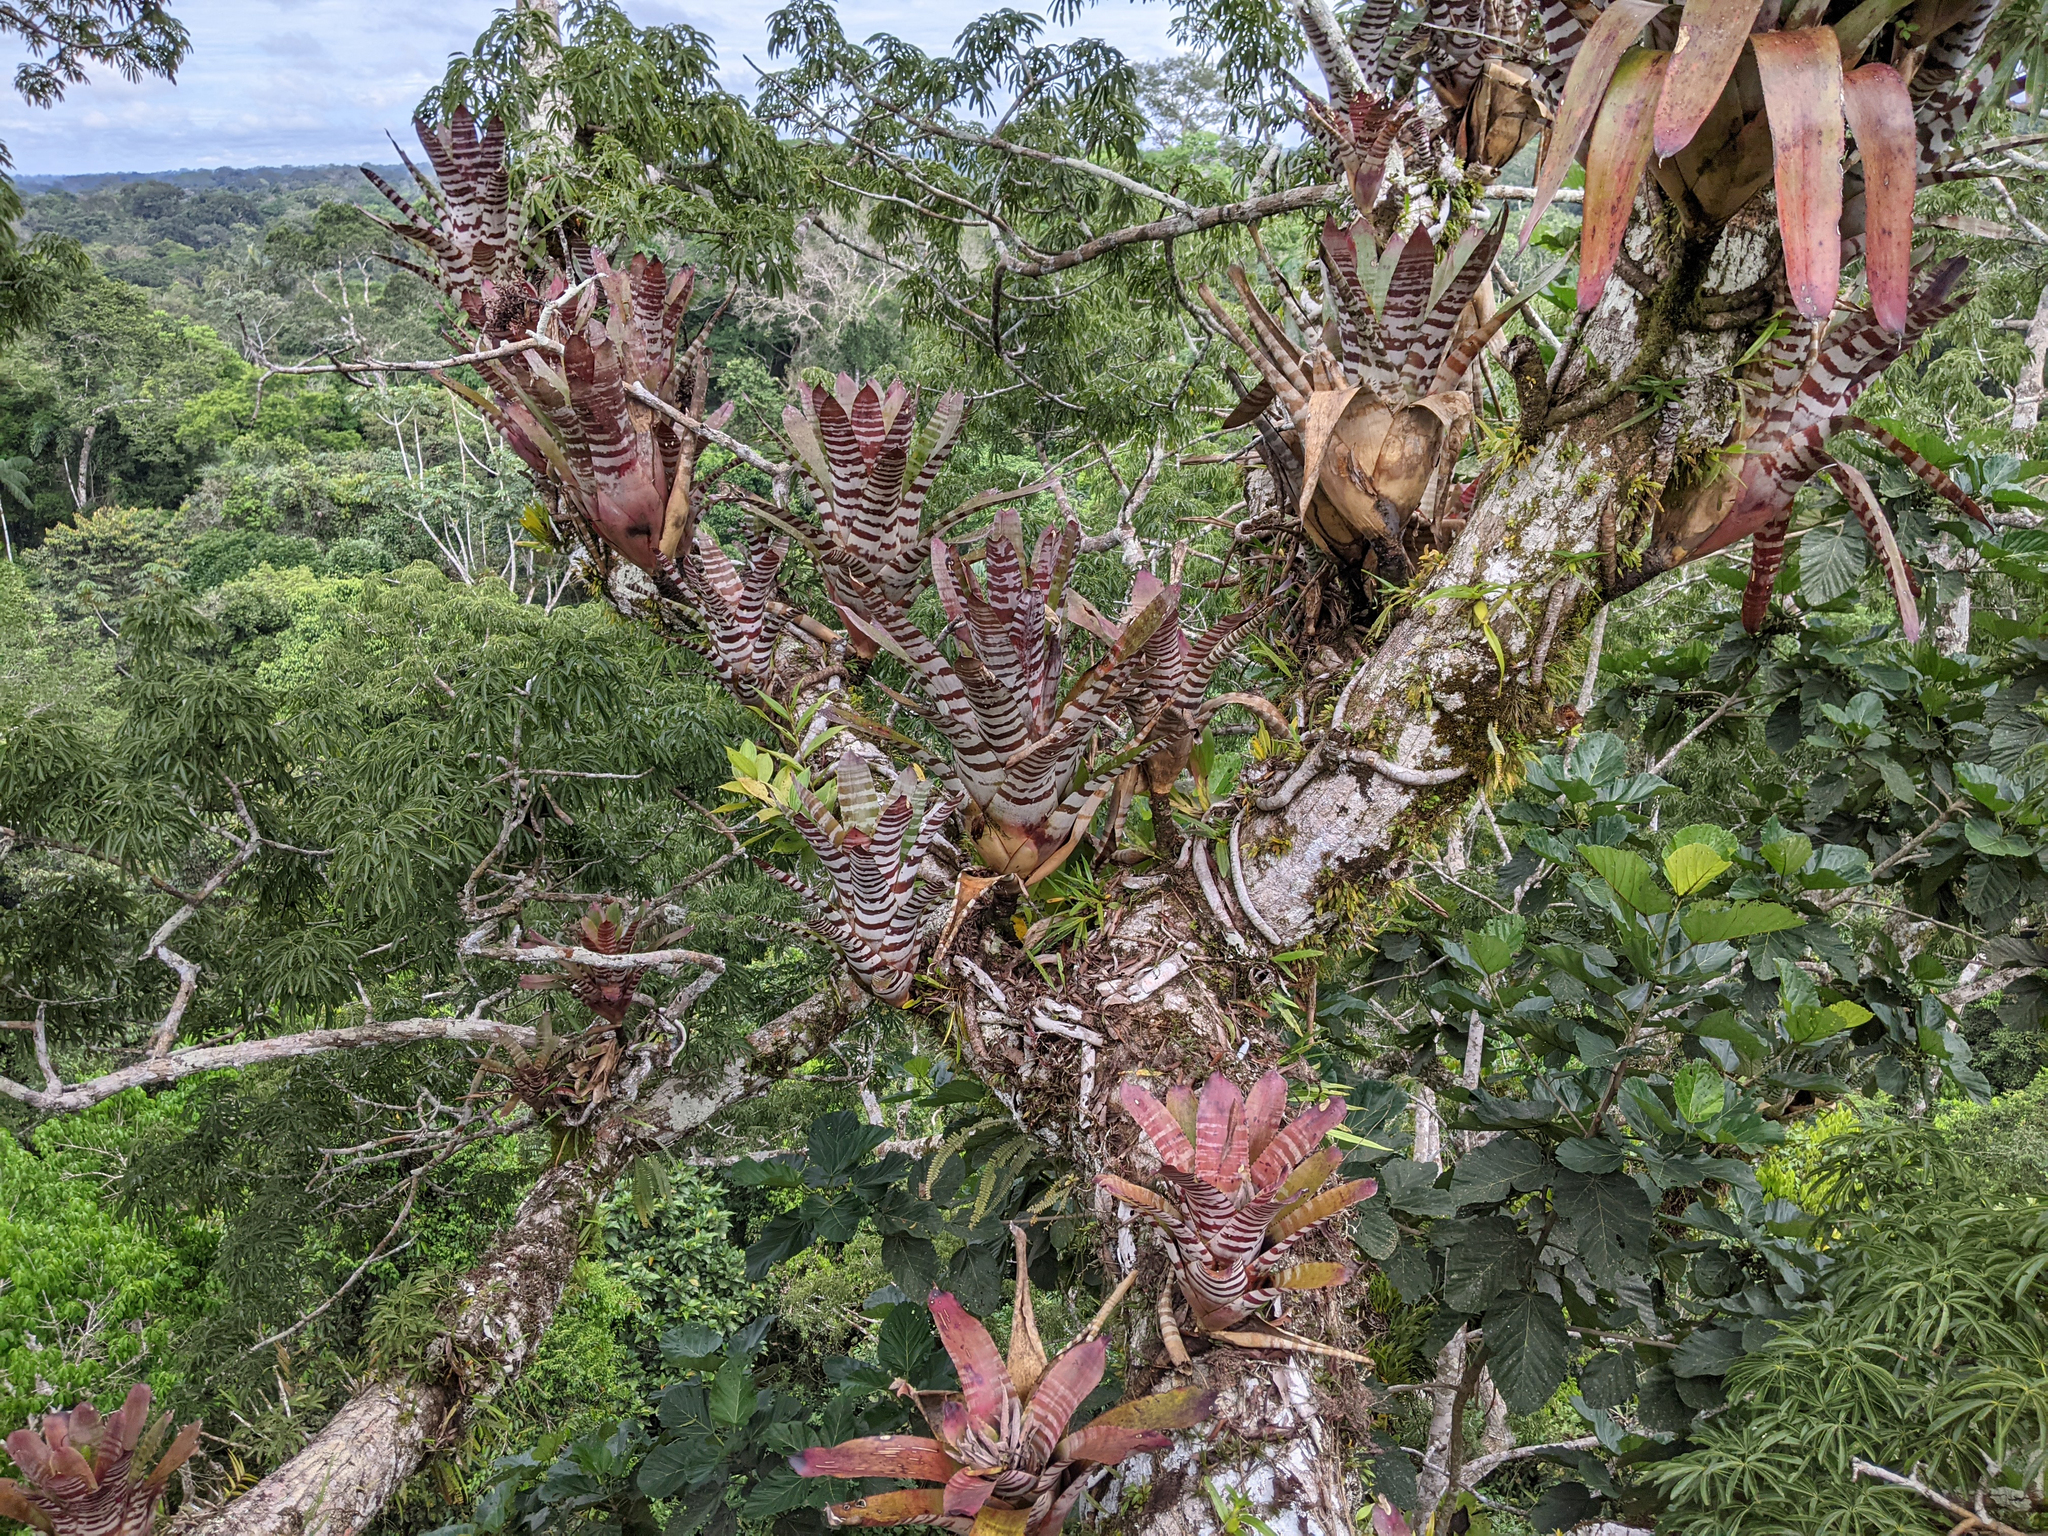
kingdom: Plantae
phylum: Tracheophyta
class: Liliopsida
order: Poales
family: Bromeliaceae
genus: Aechmea
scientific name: Aechmea zebrina
